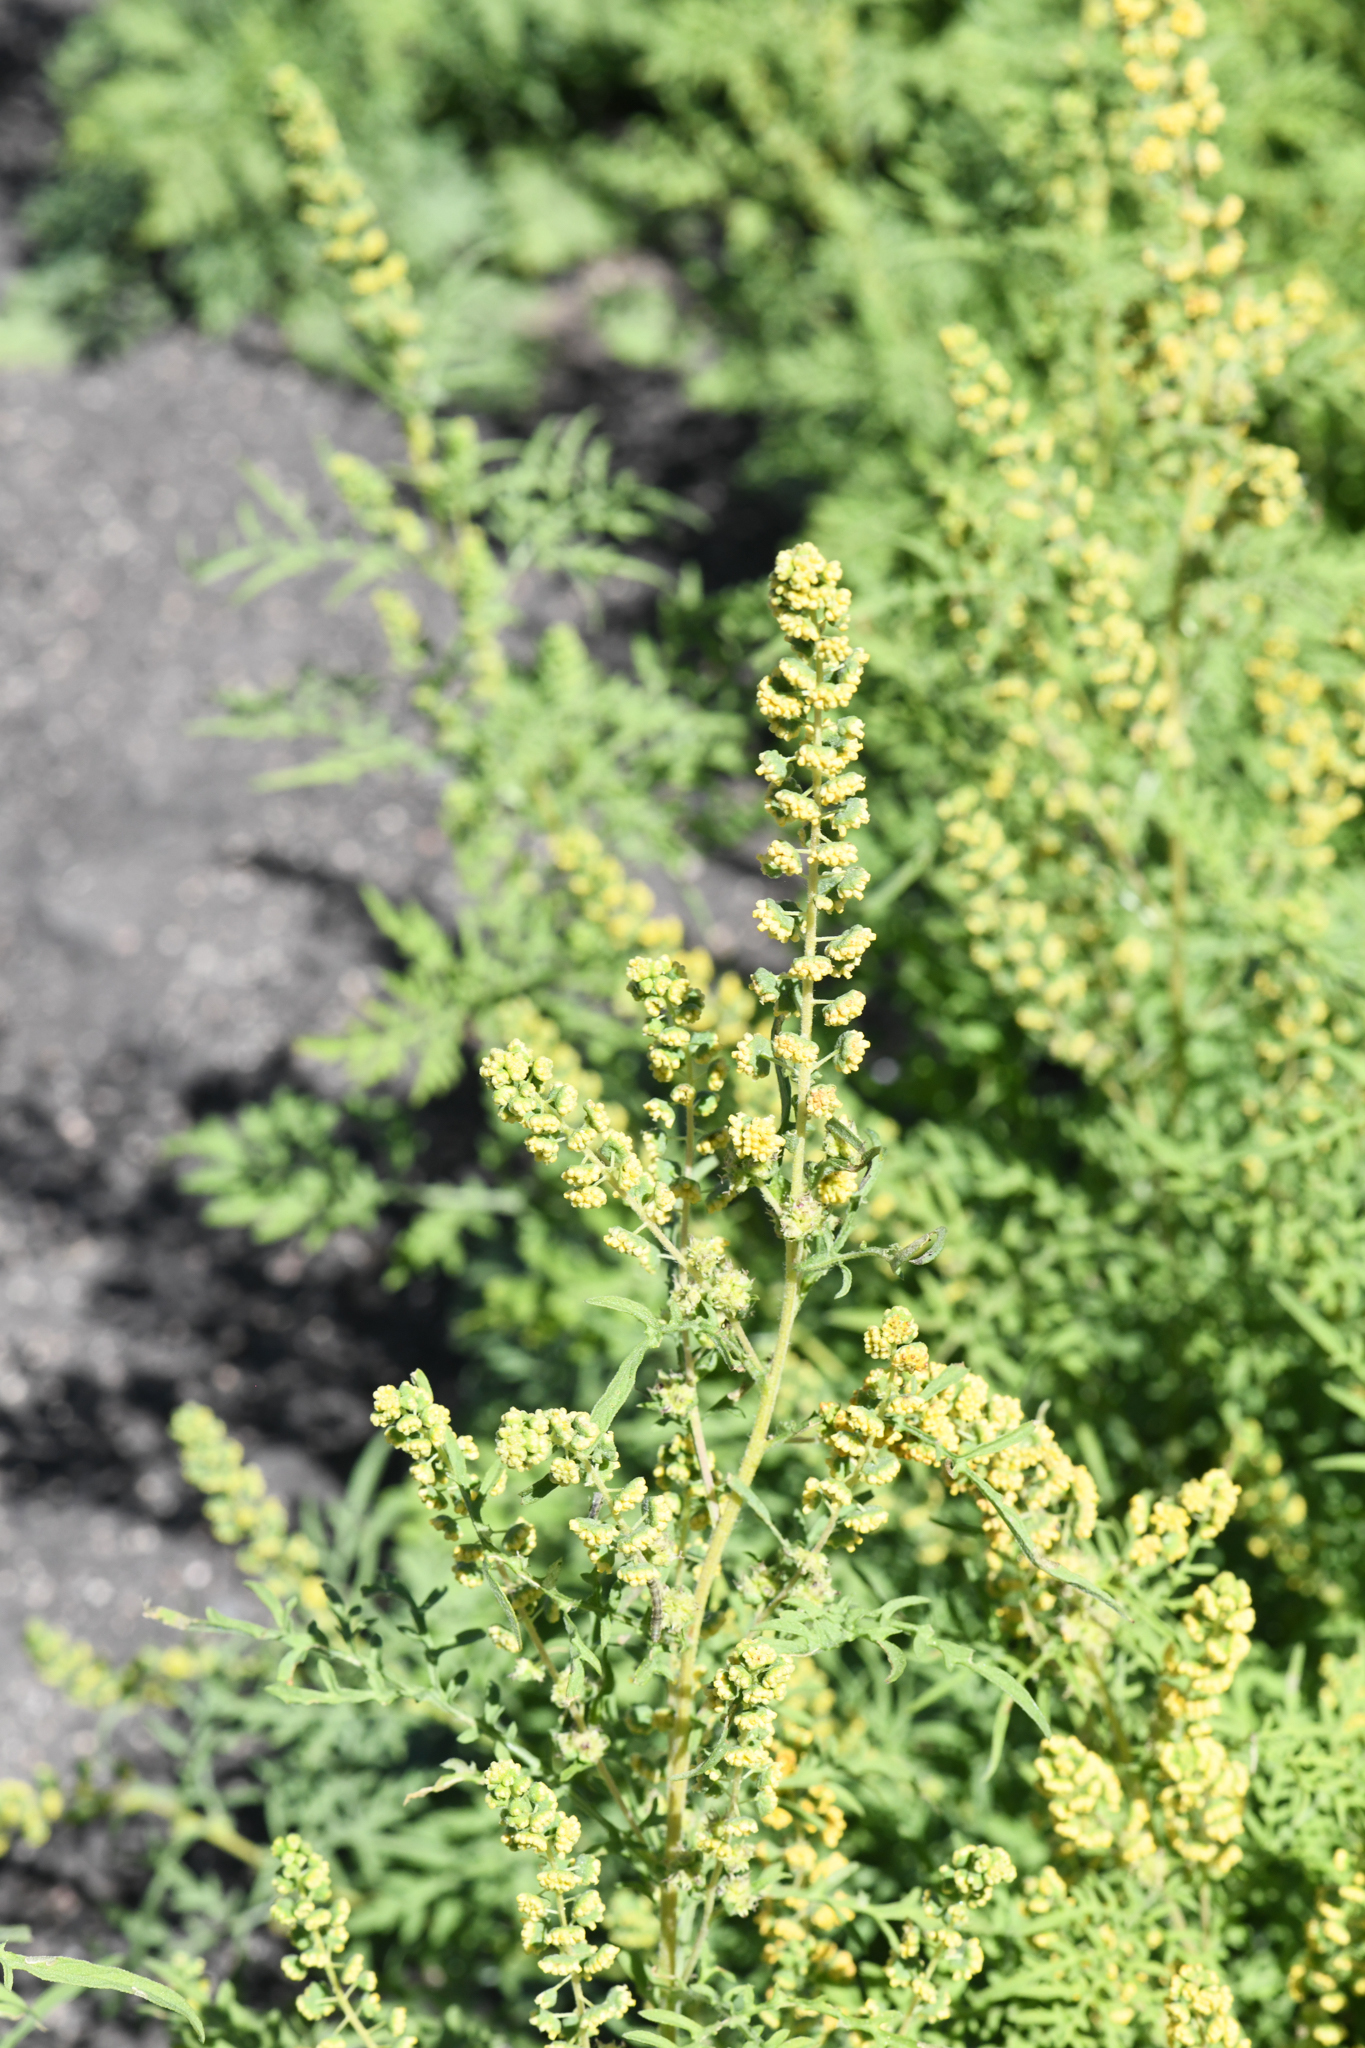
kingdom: Plantae
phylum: Tracheophyta
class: Magnoliopsida
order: Asterales
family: Asteraceae
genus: Ambrosia
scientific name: Ambrosia confertiflora
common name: Bur ragweed
